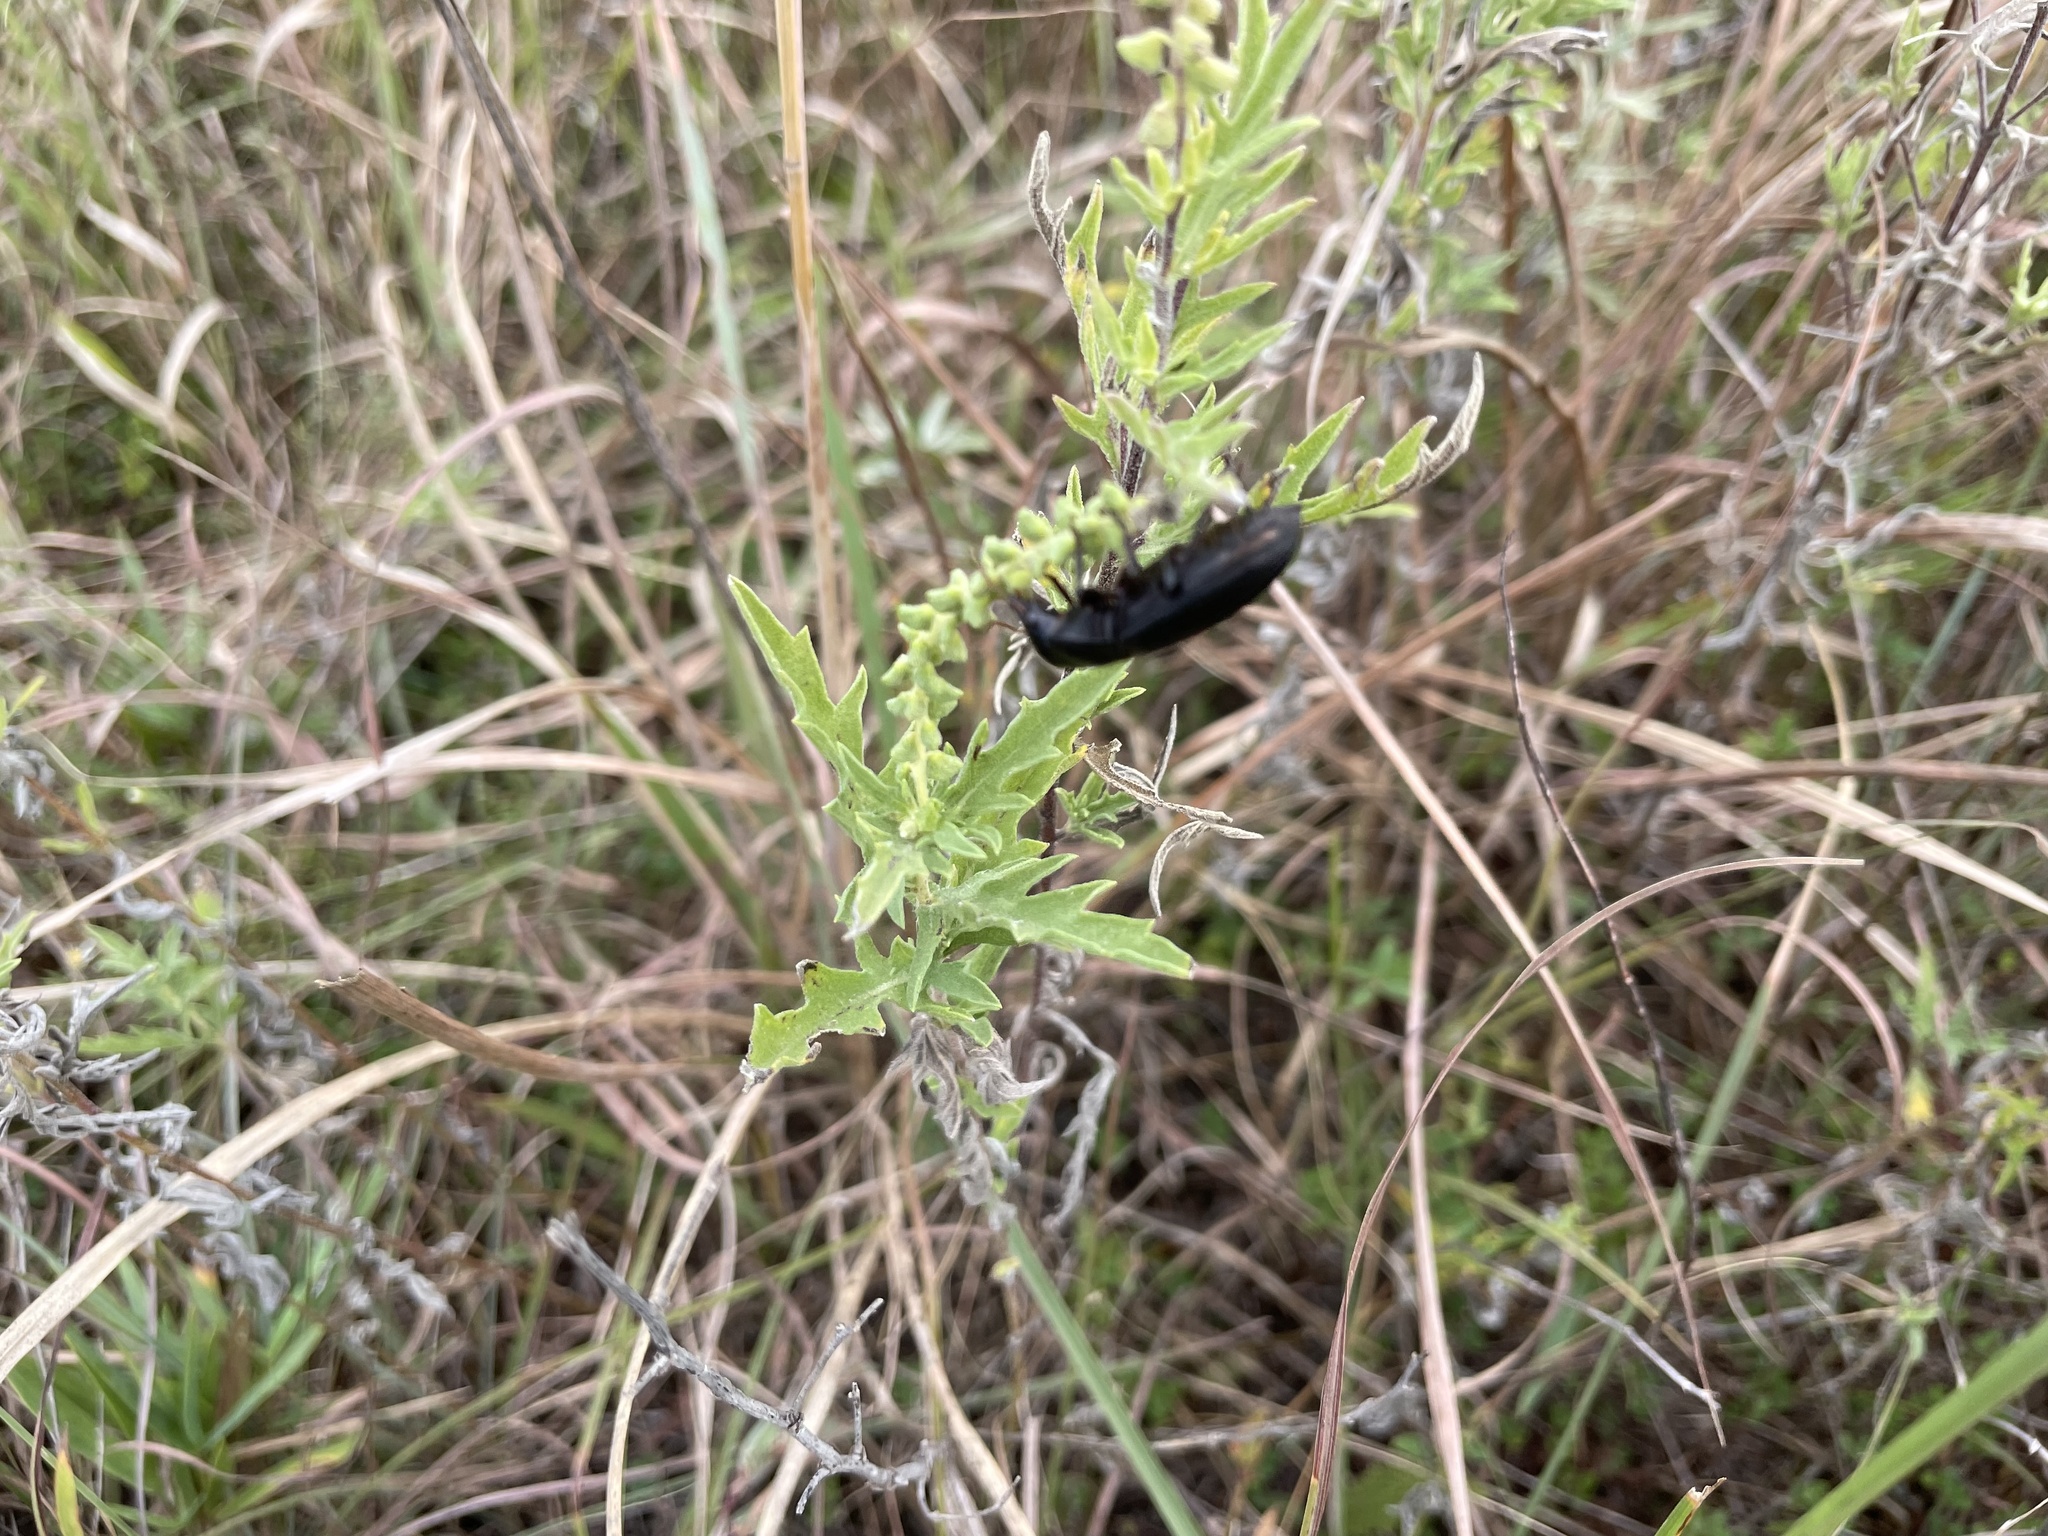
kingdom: Animalia
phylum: Arthropoda
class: Insecta
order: Coleoptera
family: Meloidae
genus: Epicauta
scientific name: Epicauta pensylvanica
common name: Black blister beetle
